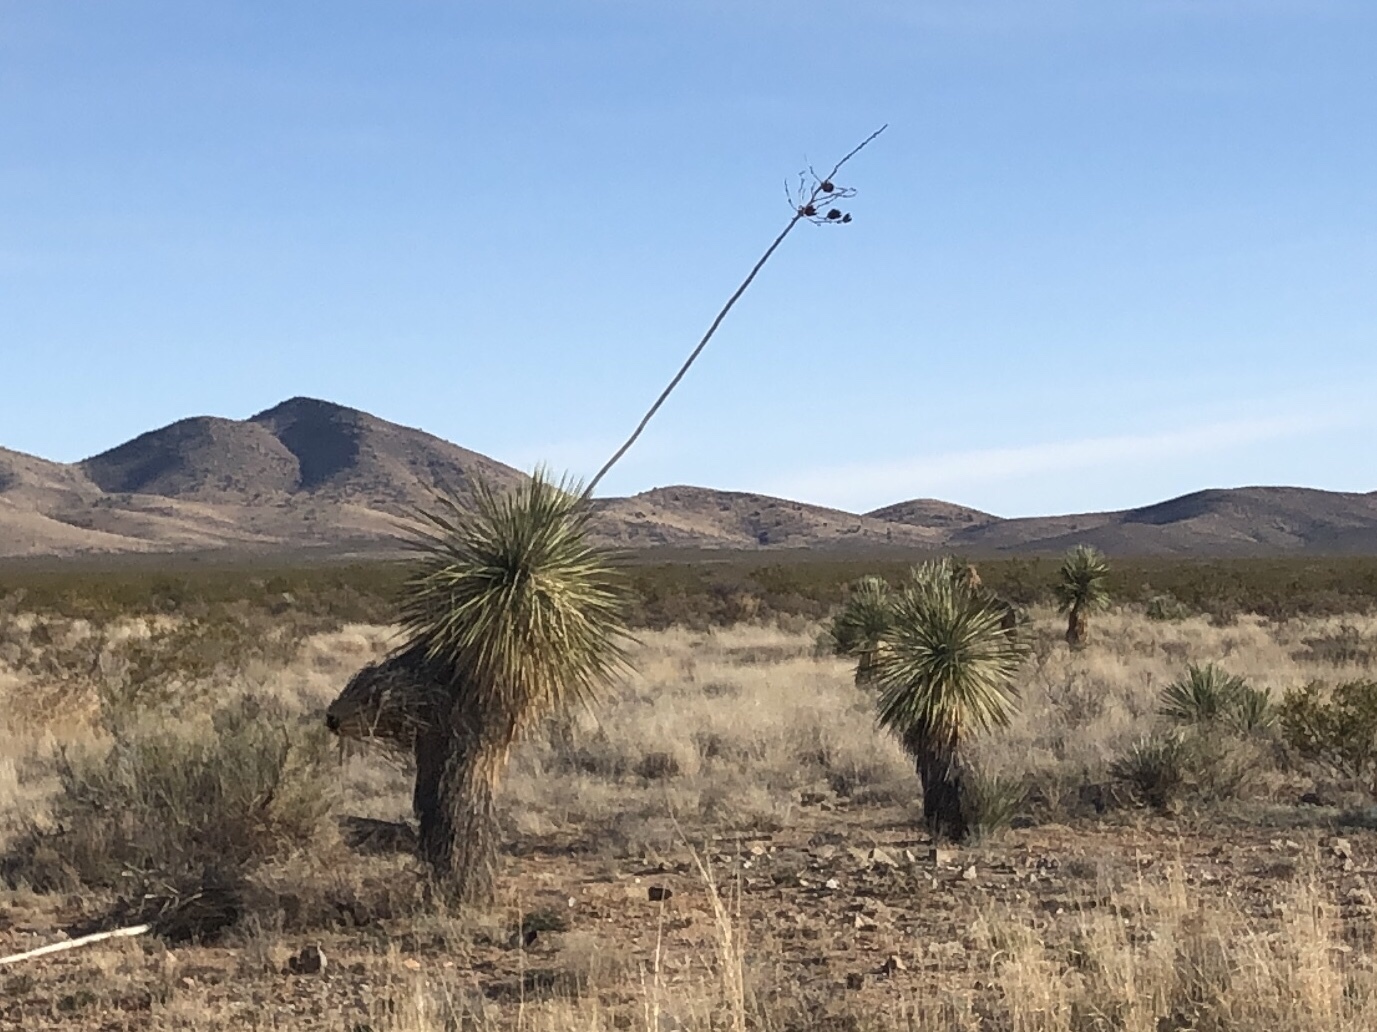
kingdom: Plantae
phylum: Tracheophyta
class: Liliopsida
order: Asparagales
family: Asparagaceae
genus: Yucca
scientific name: Yucca elata
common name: Palmella
